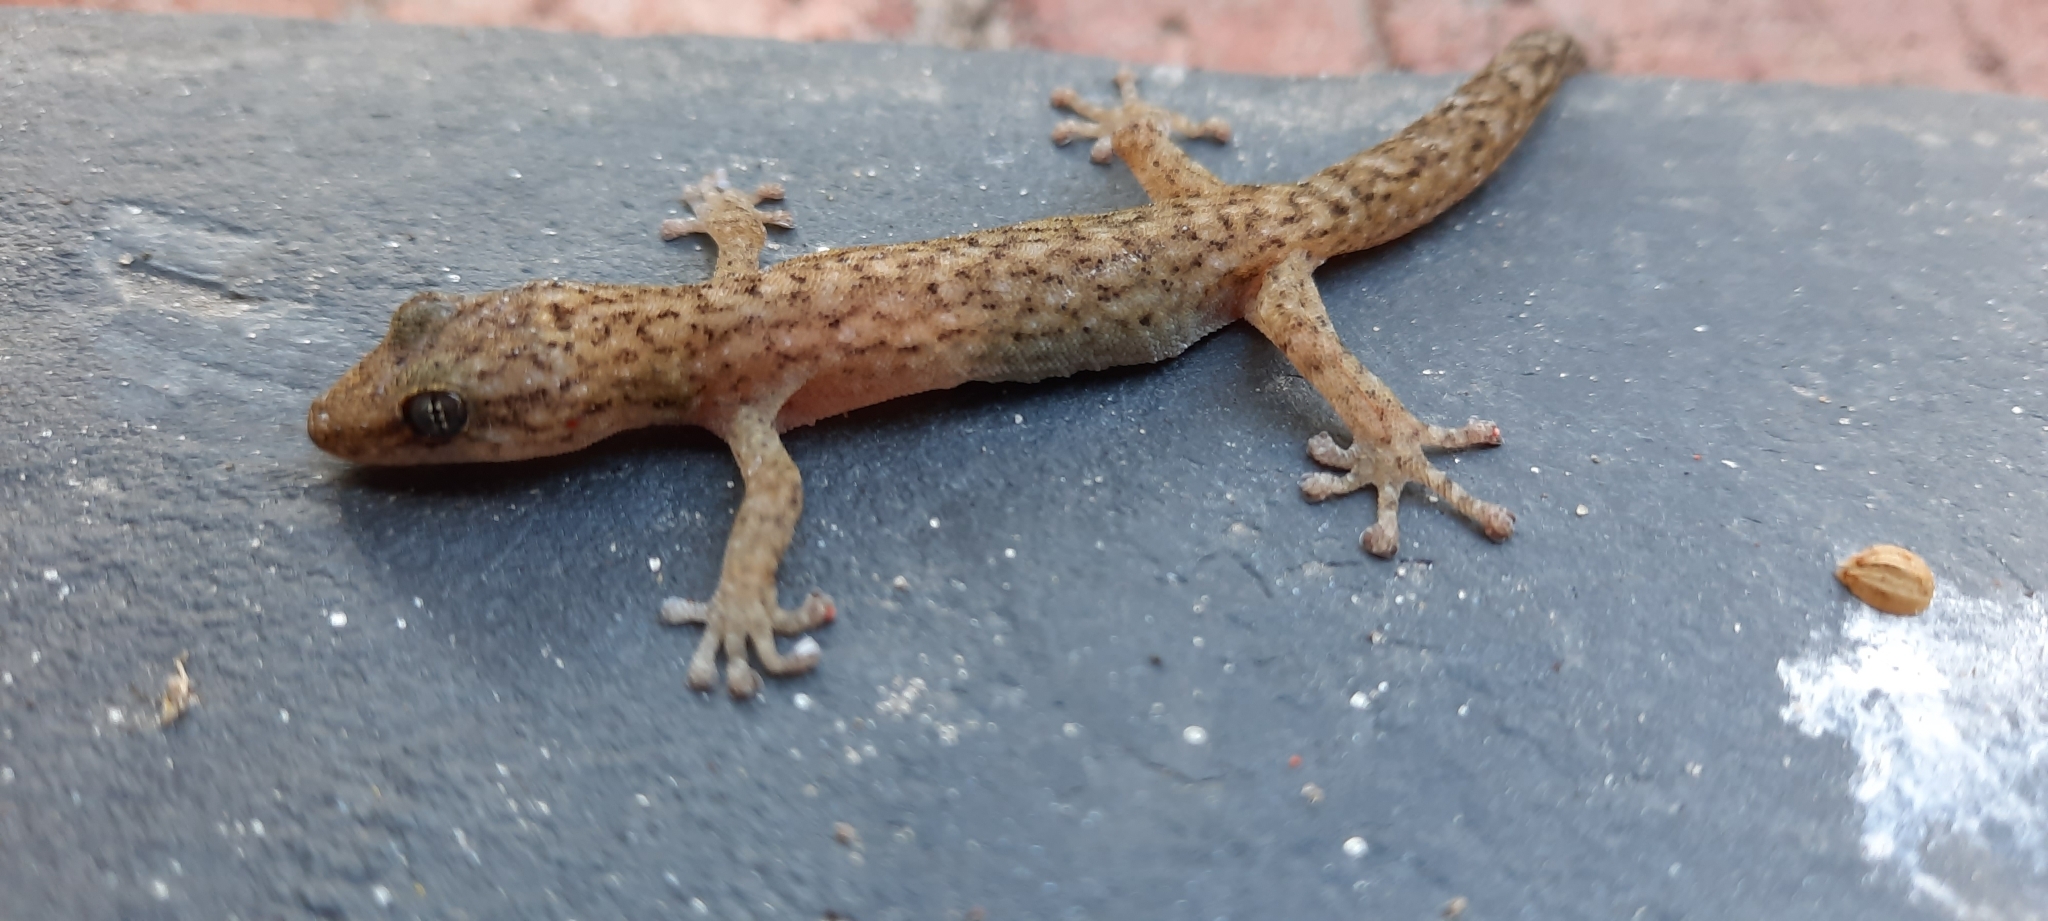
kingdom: Animalia
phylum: Chordata
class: Squamata
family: Gekkonidae
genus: Afrogecko
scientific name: Afrogecko porphyreus
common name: Marbled leaf-toed gecko
